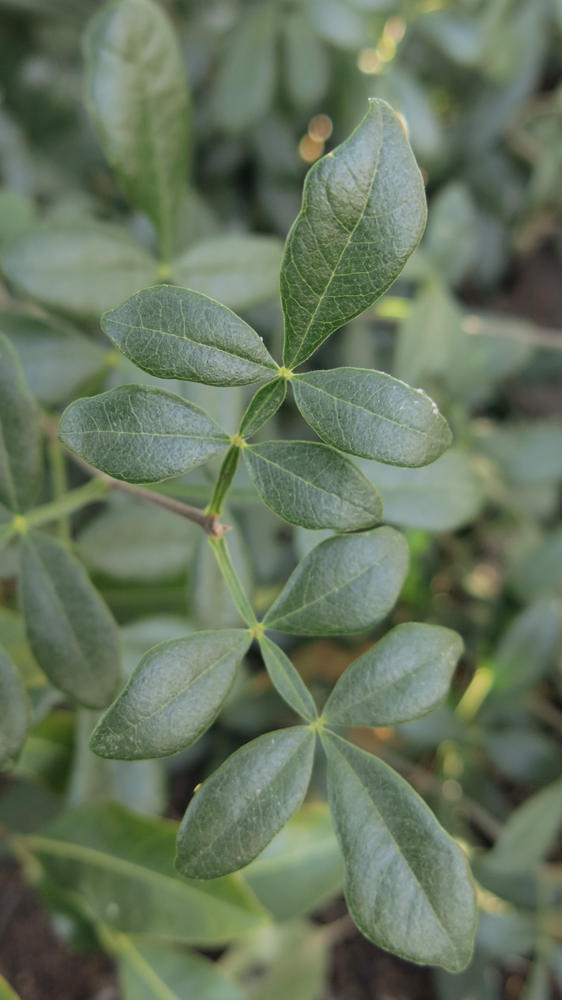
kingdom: Plantae
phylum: Tracheophyta
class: Magnoliopsida
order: Lamiales
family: Oleaceae
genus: Schrebera
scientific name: Schrebera alata
